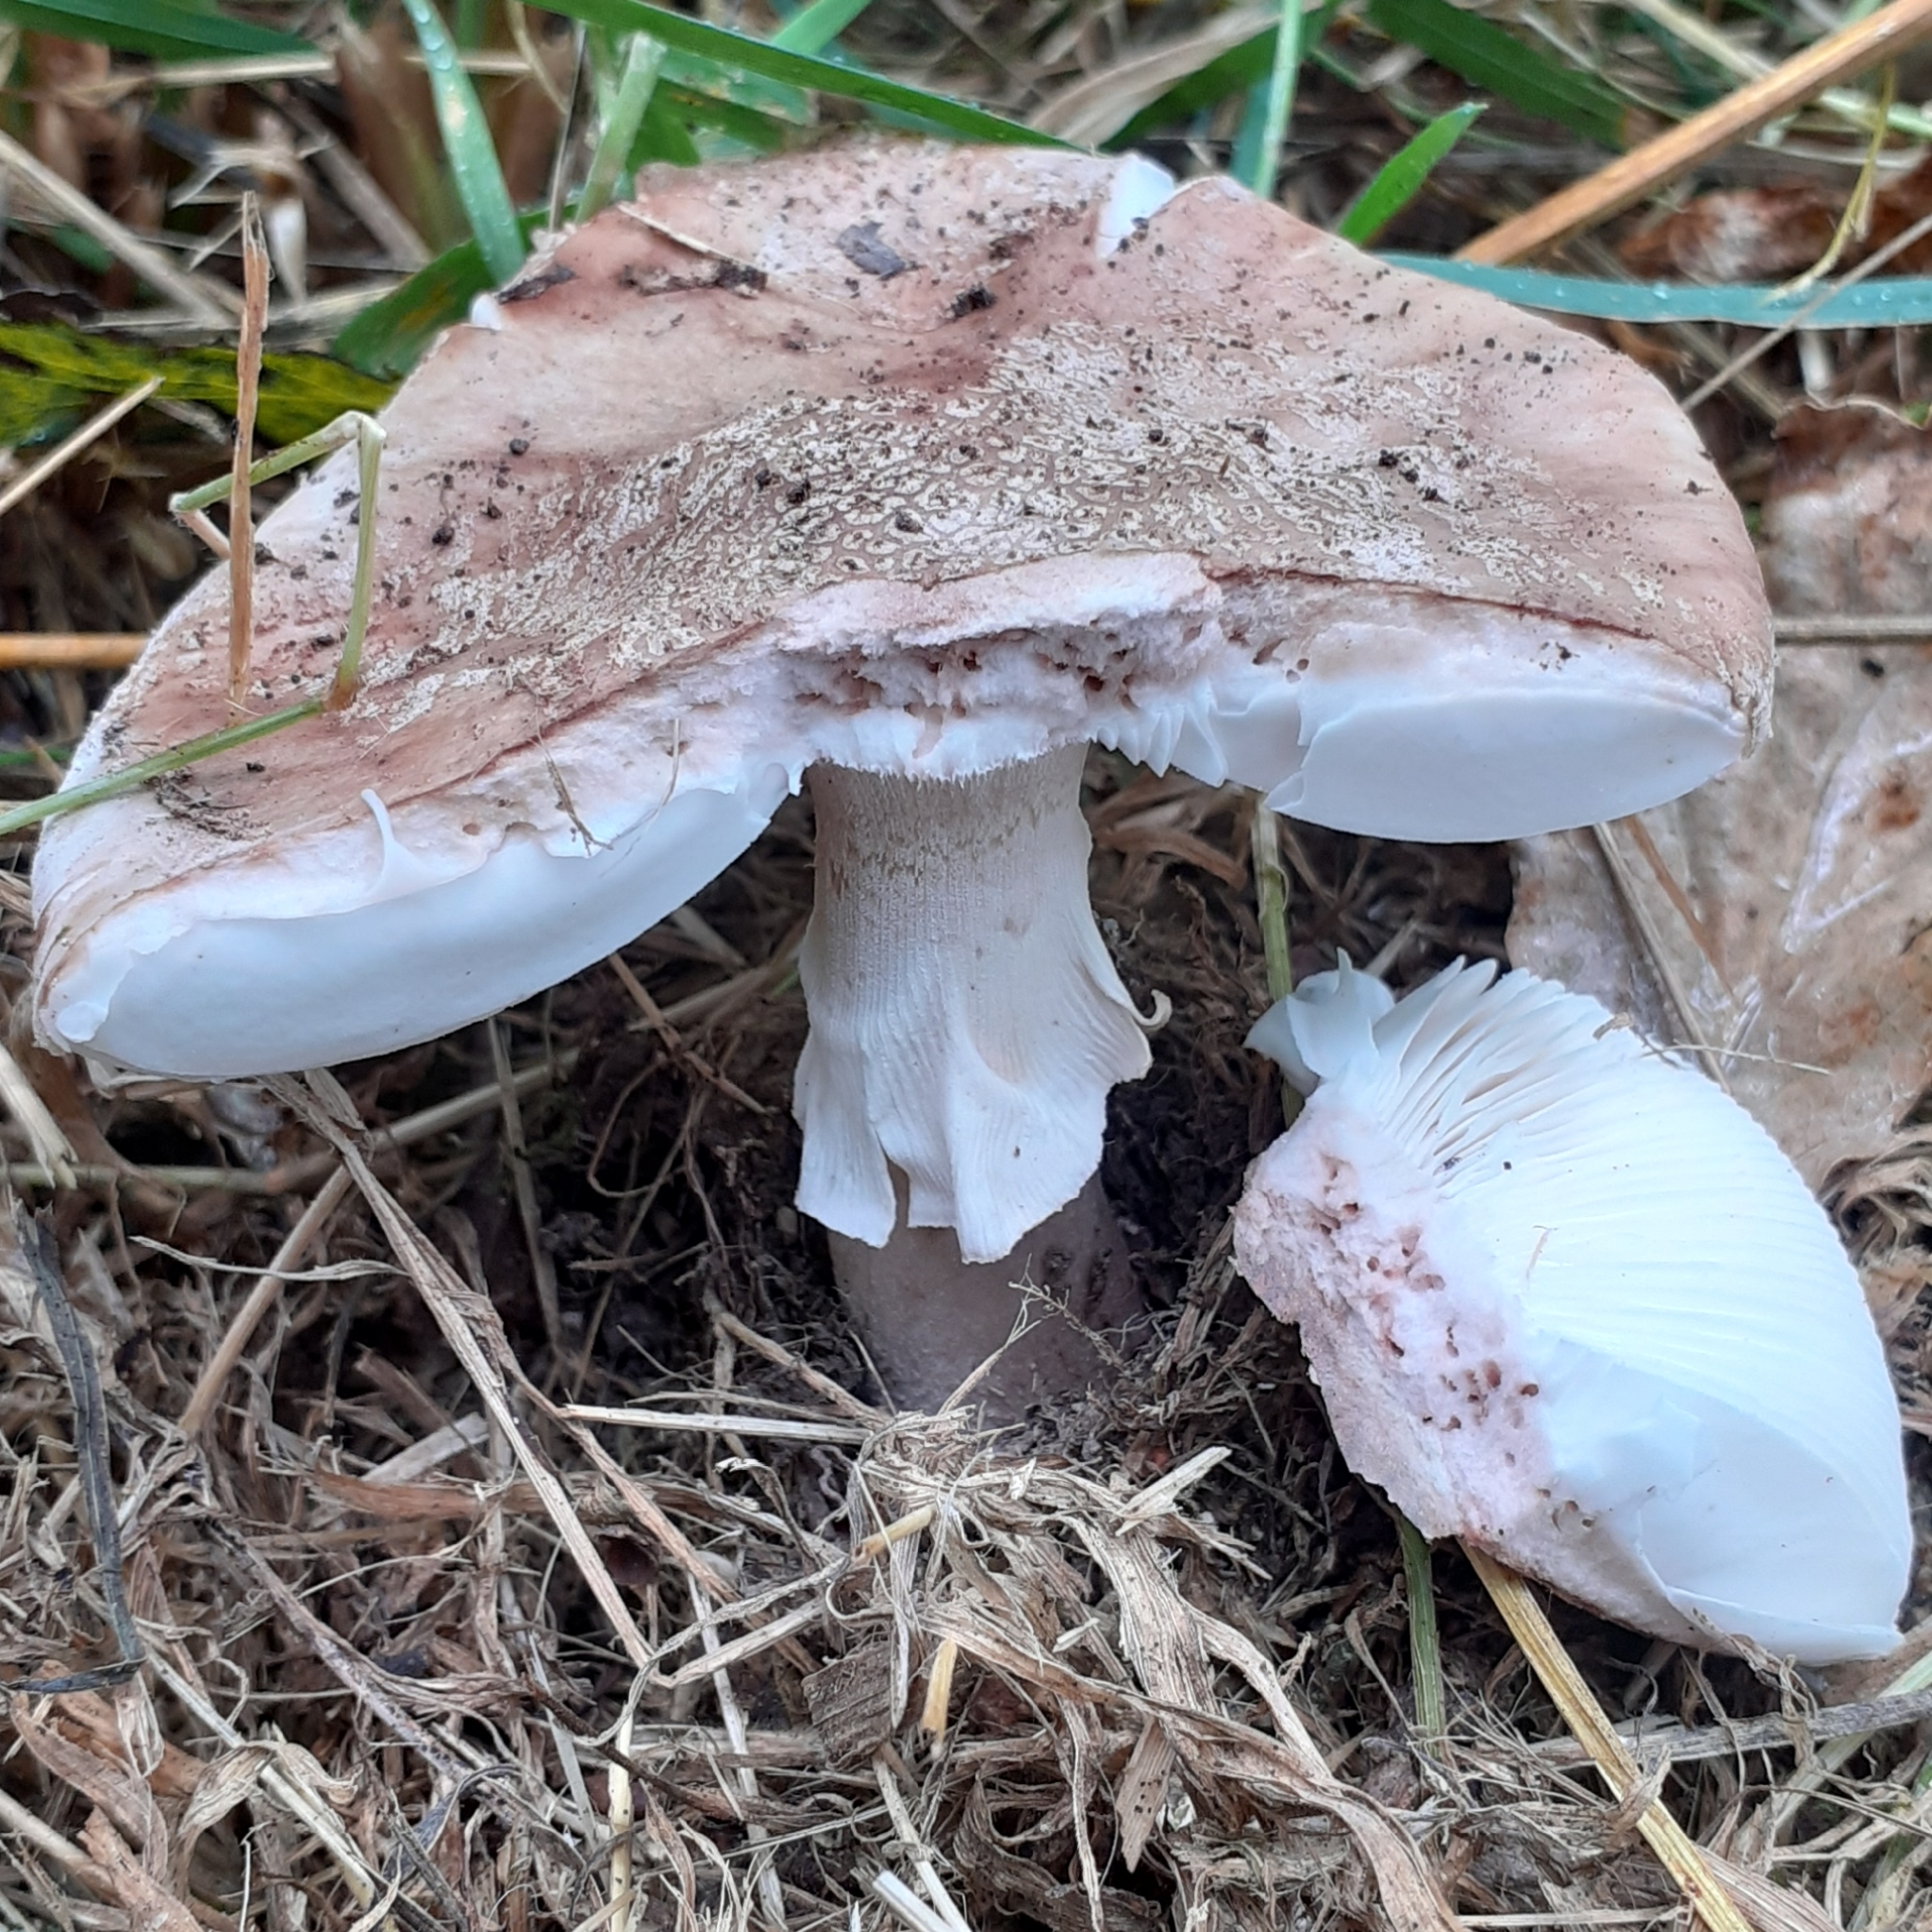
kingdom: Fungi
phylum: Basidiomycota
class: Agaricomycetes
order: Agaricales
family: Amanitaceae
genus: Amanita
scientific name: Amanita rubescens
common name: Blusher
